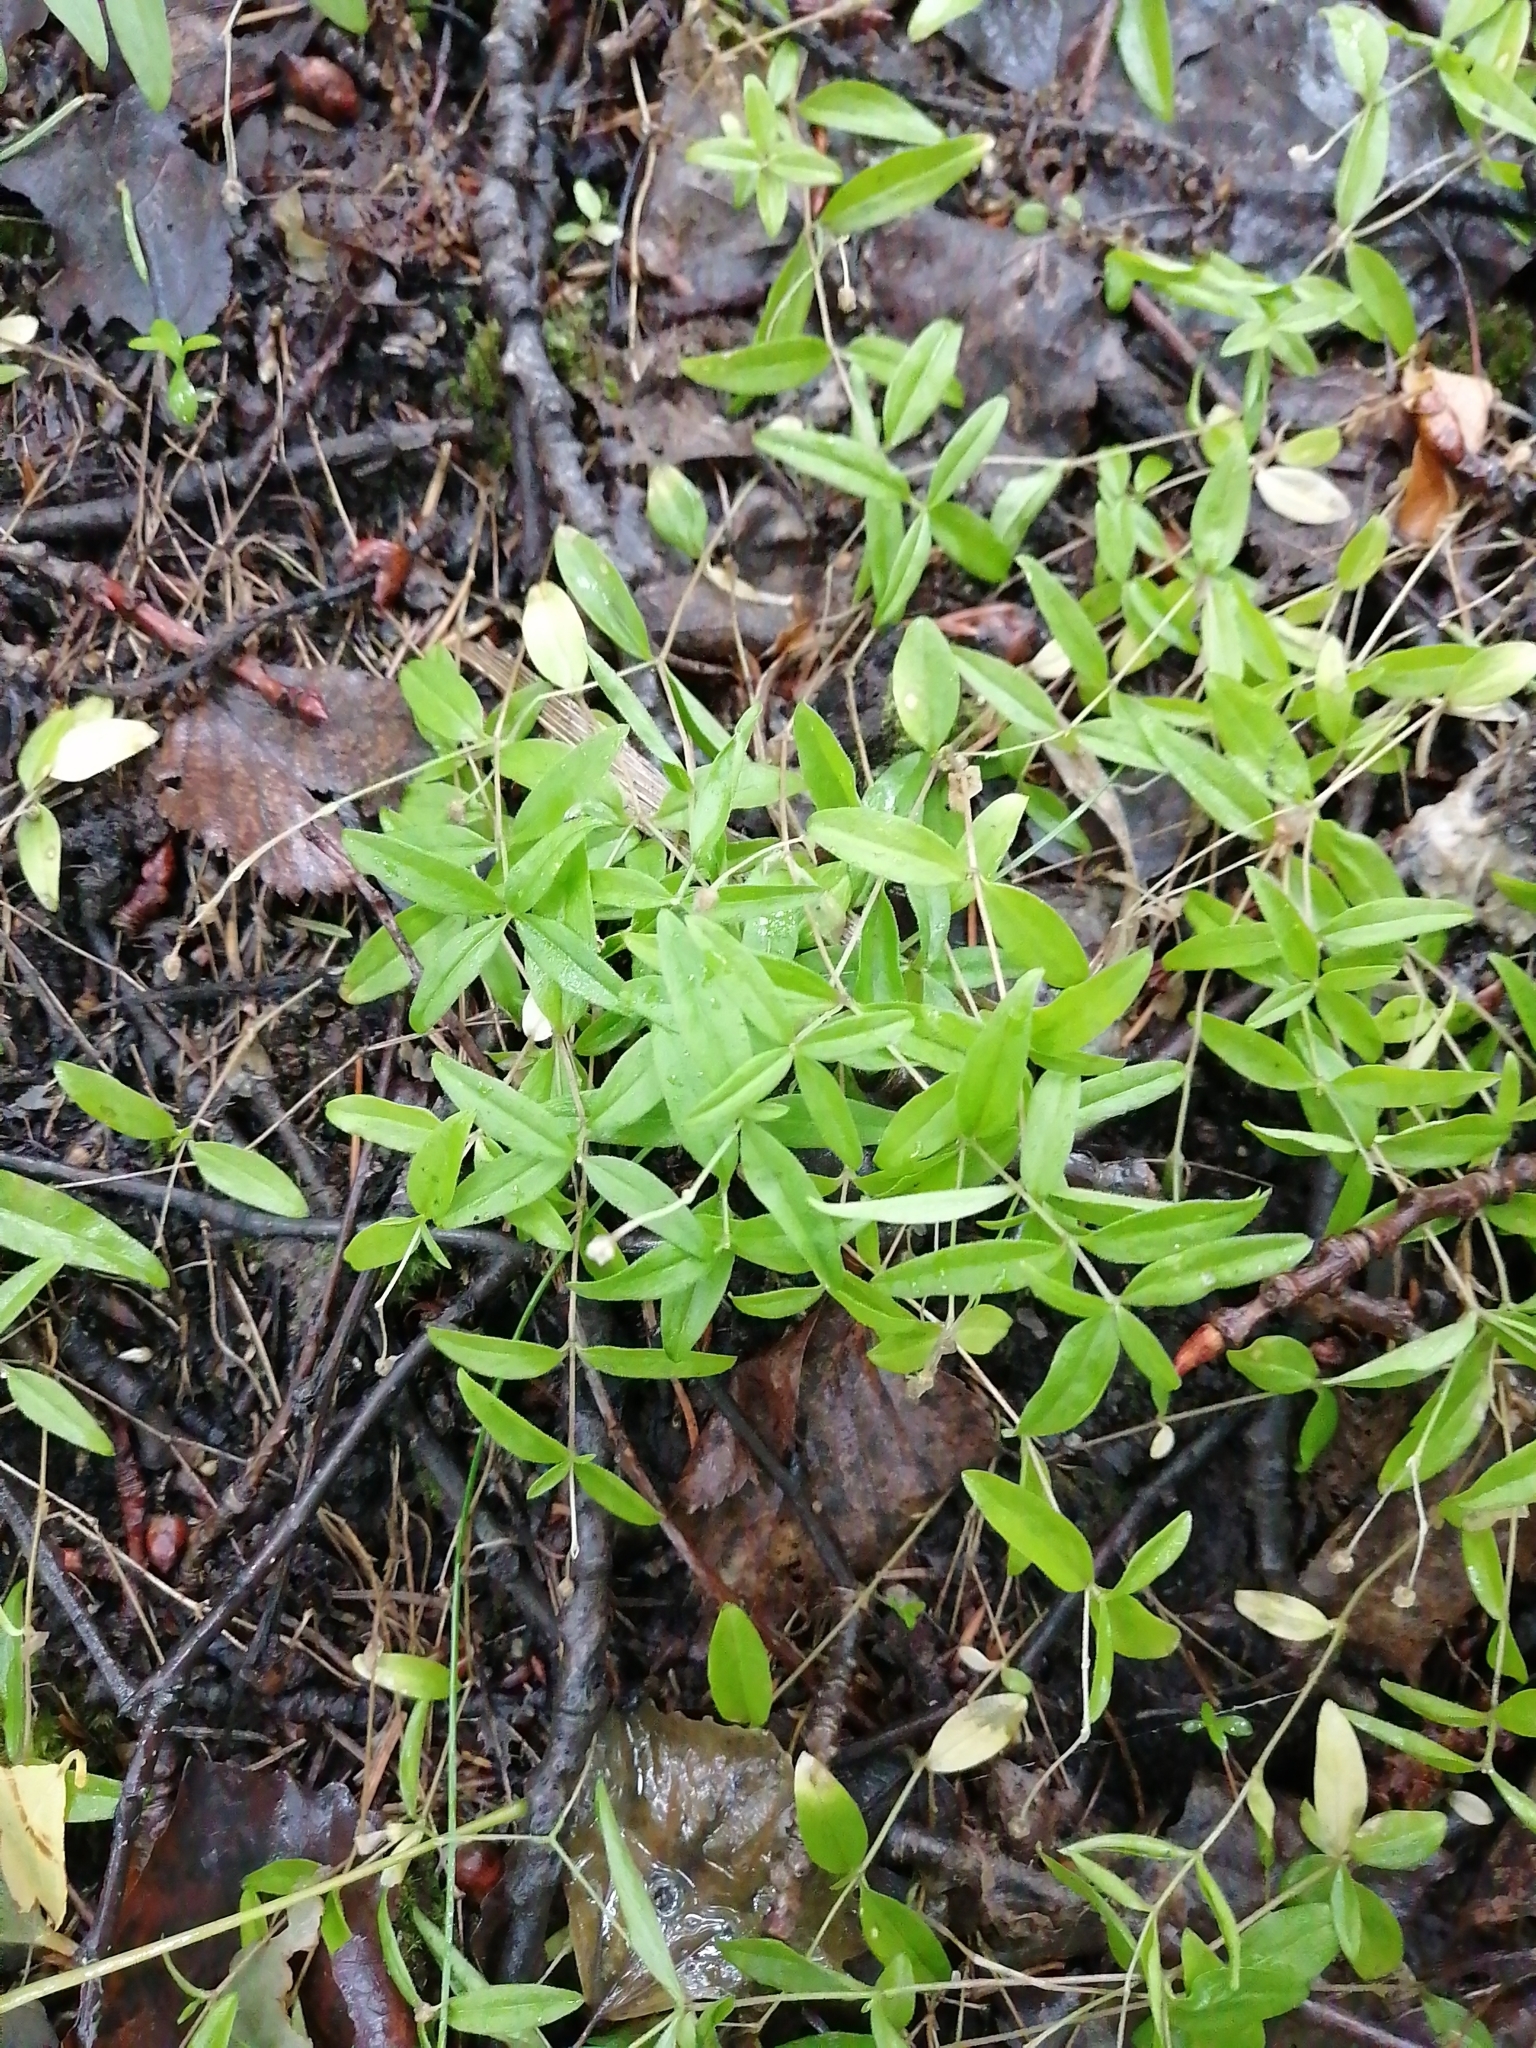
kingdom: Plantae
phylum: Tracheophyta
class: Magnoliopsida
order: Caryophyllales
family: Caryophyllaceae
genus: Moehringia
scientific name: Moehringia lateriflora
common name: Blunt-leaved sandwort
